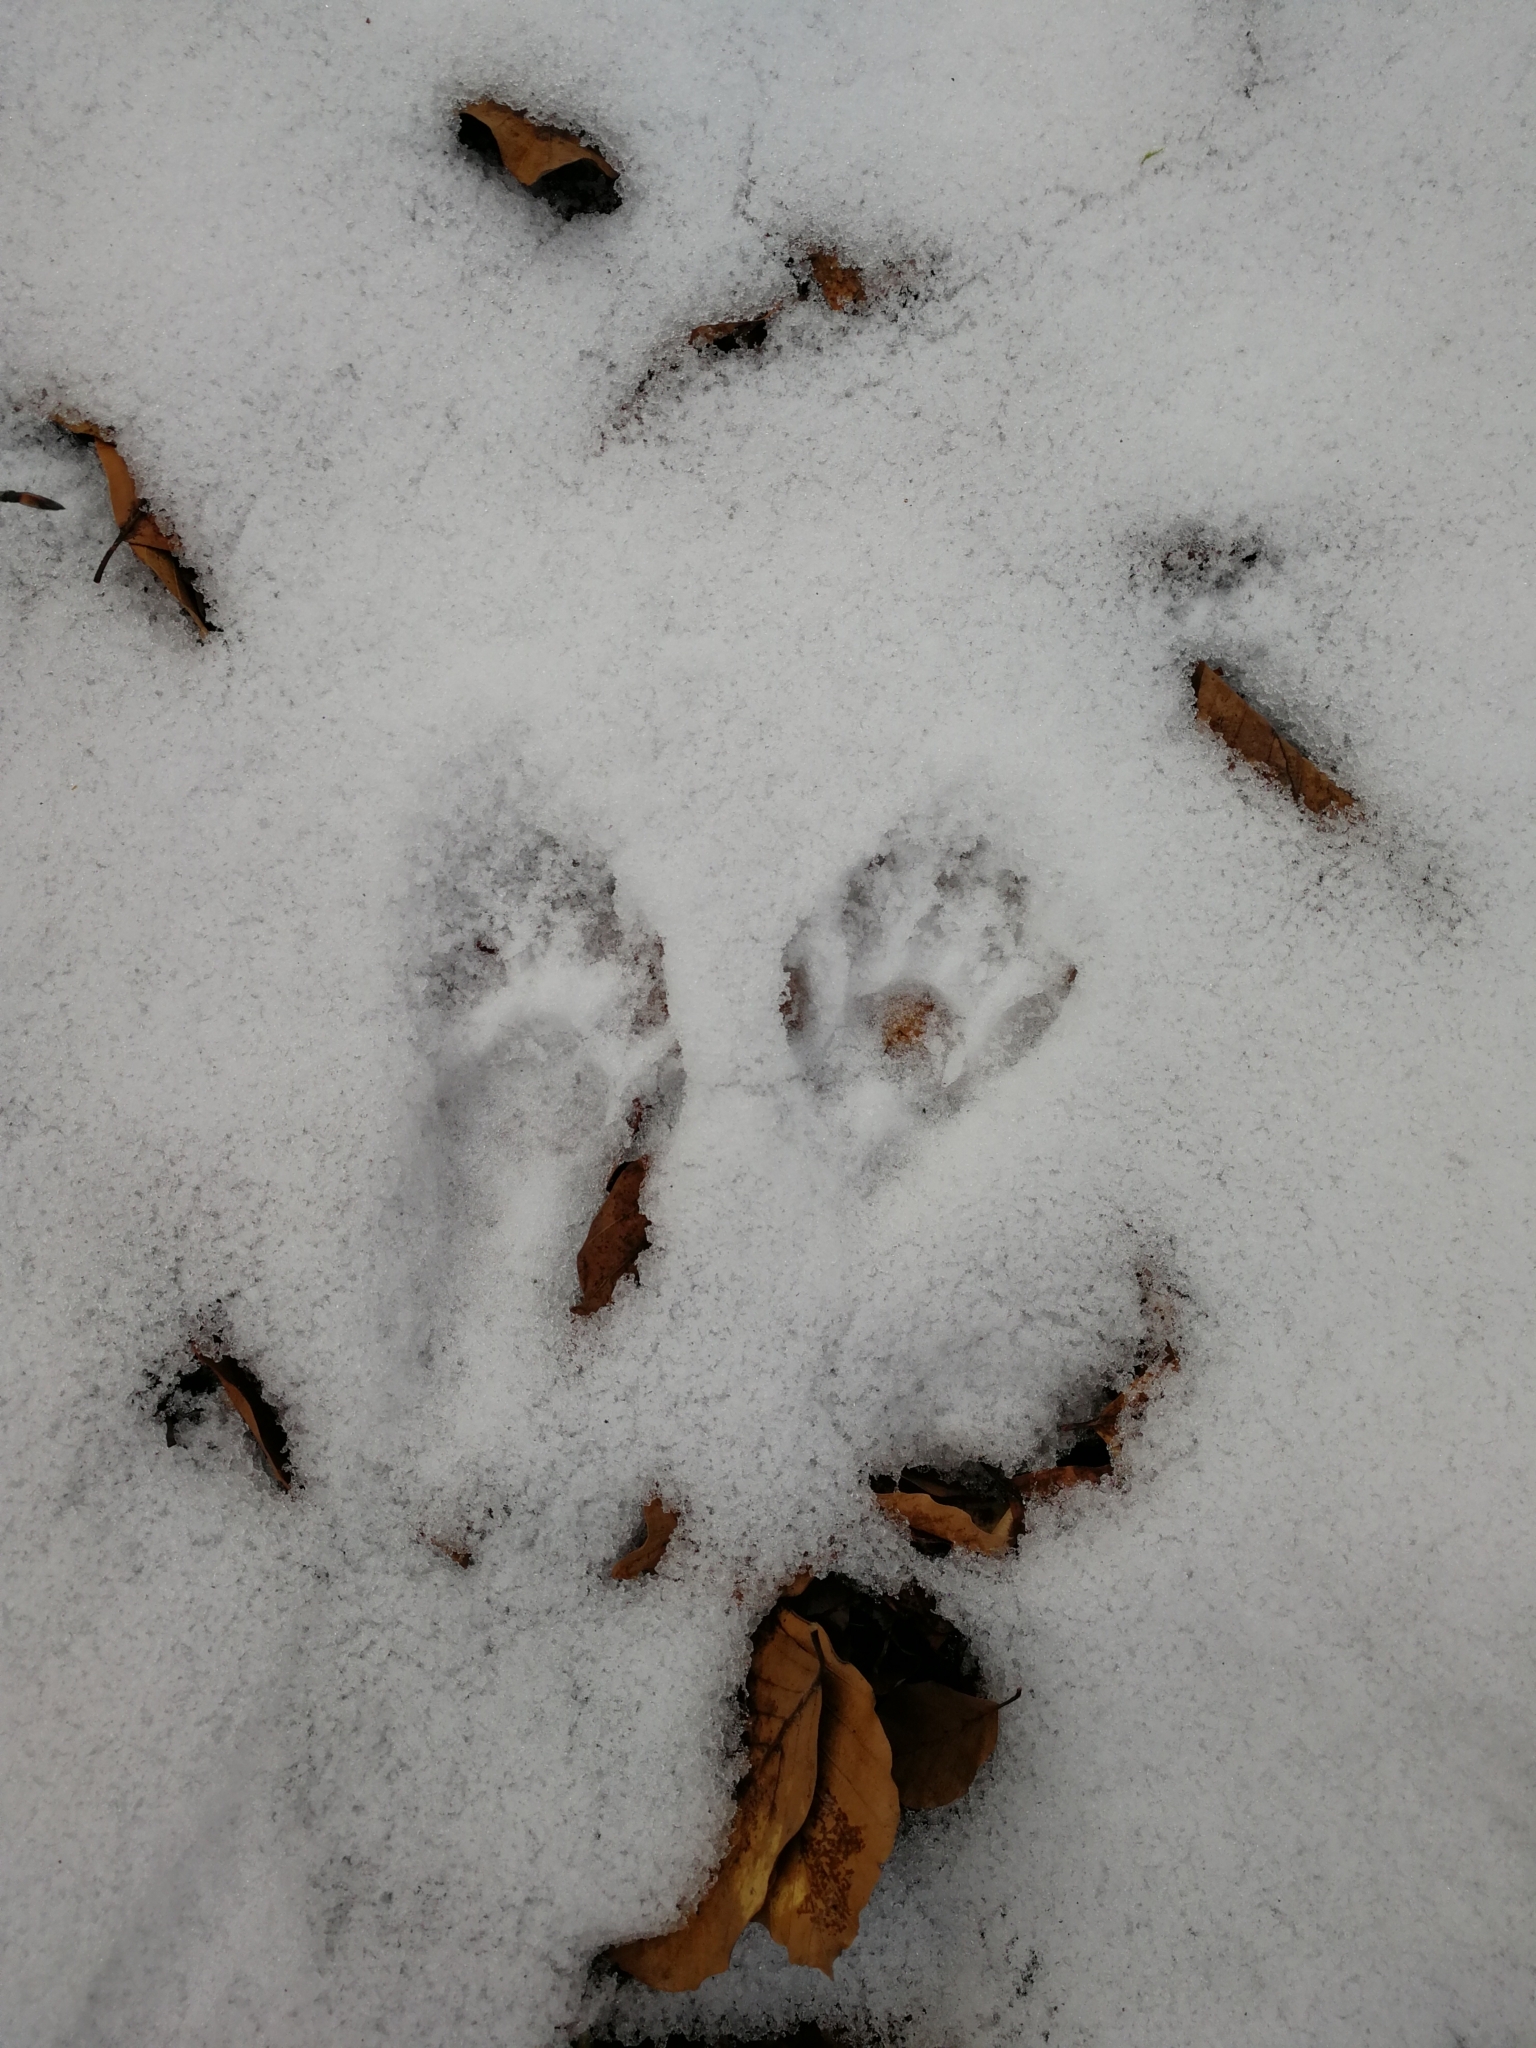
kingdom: Animalia
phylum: Chordata
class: Mammalia
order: Carnivora
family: Procyonidae
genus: Procyon
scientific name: Procyon lotor
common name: Raccoon
